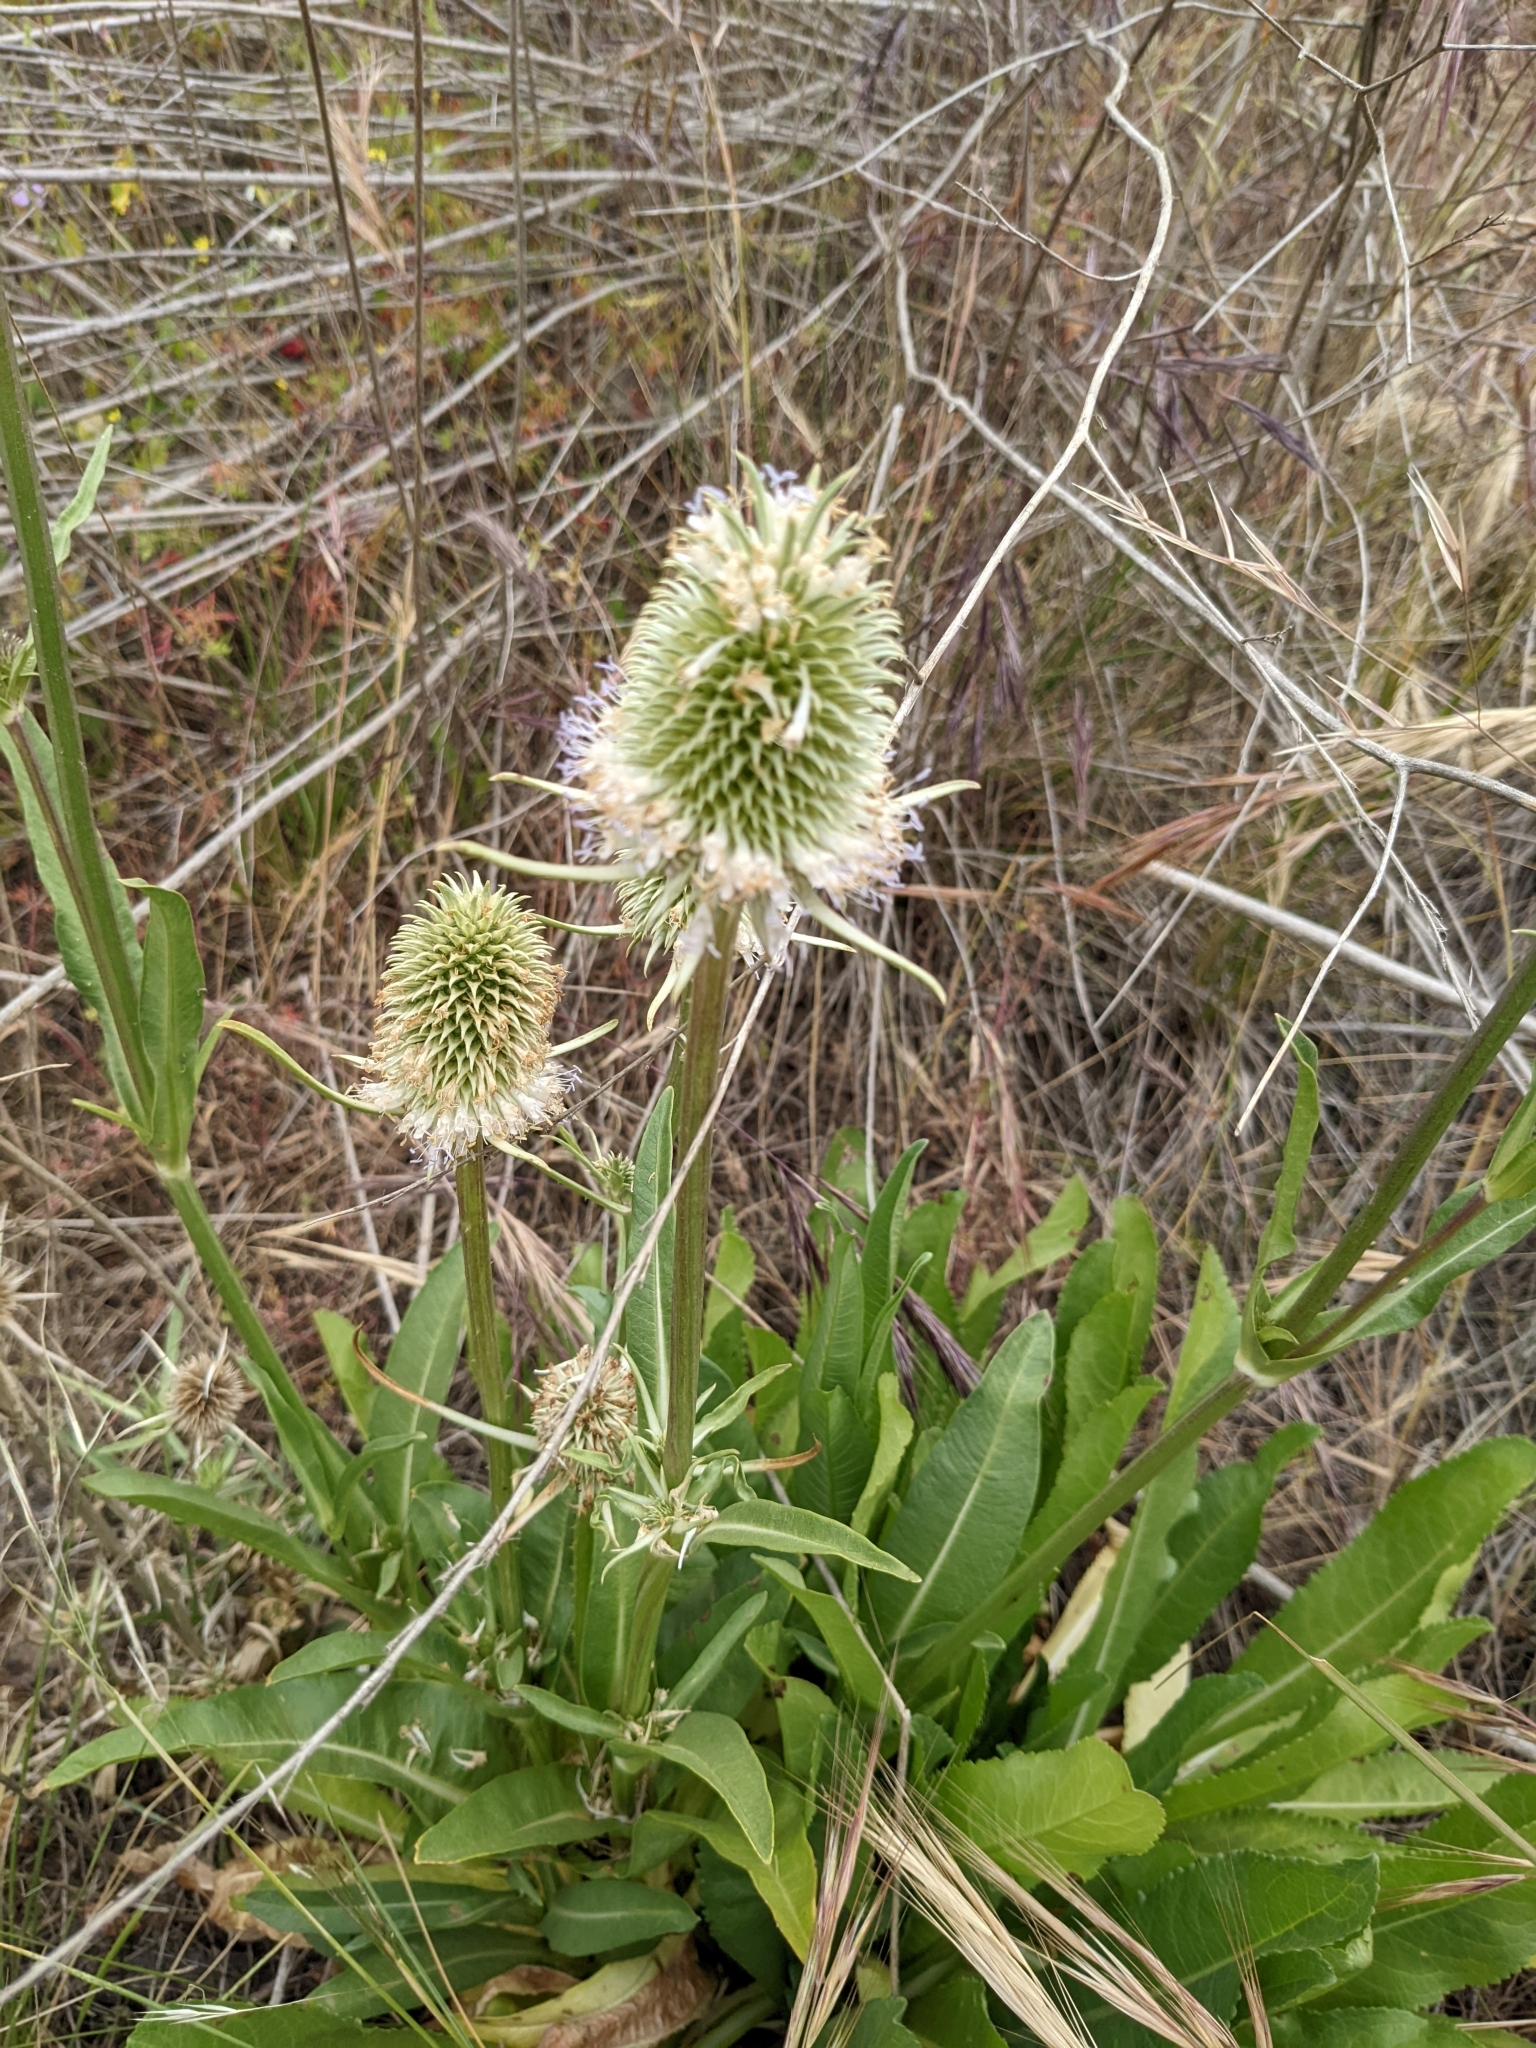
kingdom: Plantae
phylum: Tracheophyta
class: Magnoliopsida
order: Dipsacales
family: Caprifoliaceae
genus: Dipsacus
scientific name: Dipsacus sativus
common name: Fuller's teasel
